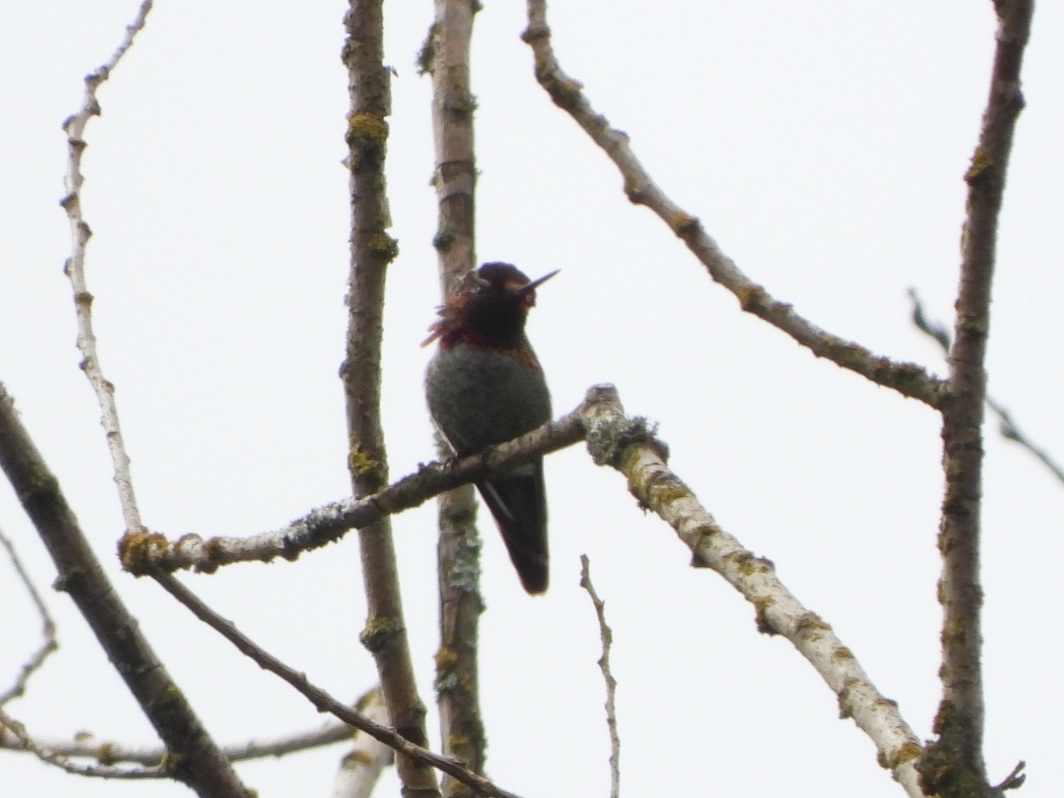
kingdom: Animalia
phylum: Chordata
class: Aves
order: Apodiformes
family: Trochilidae
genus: Calypte
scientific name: Calypte anna
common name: Anna's hummingbird
